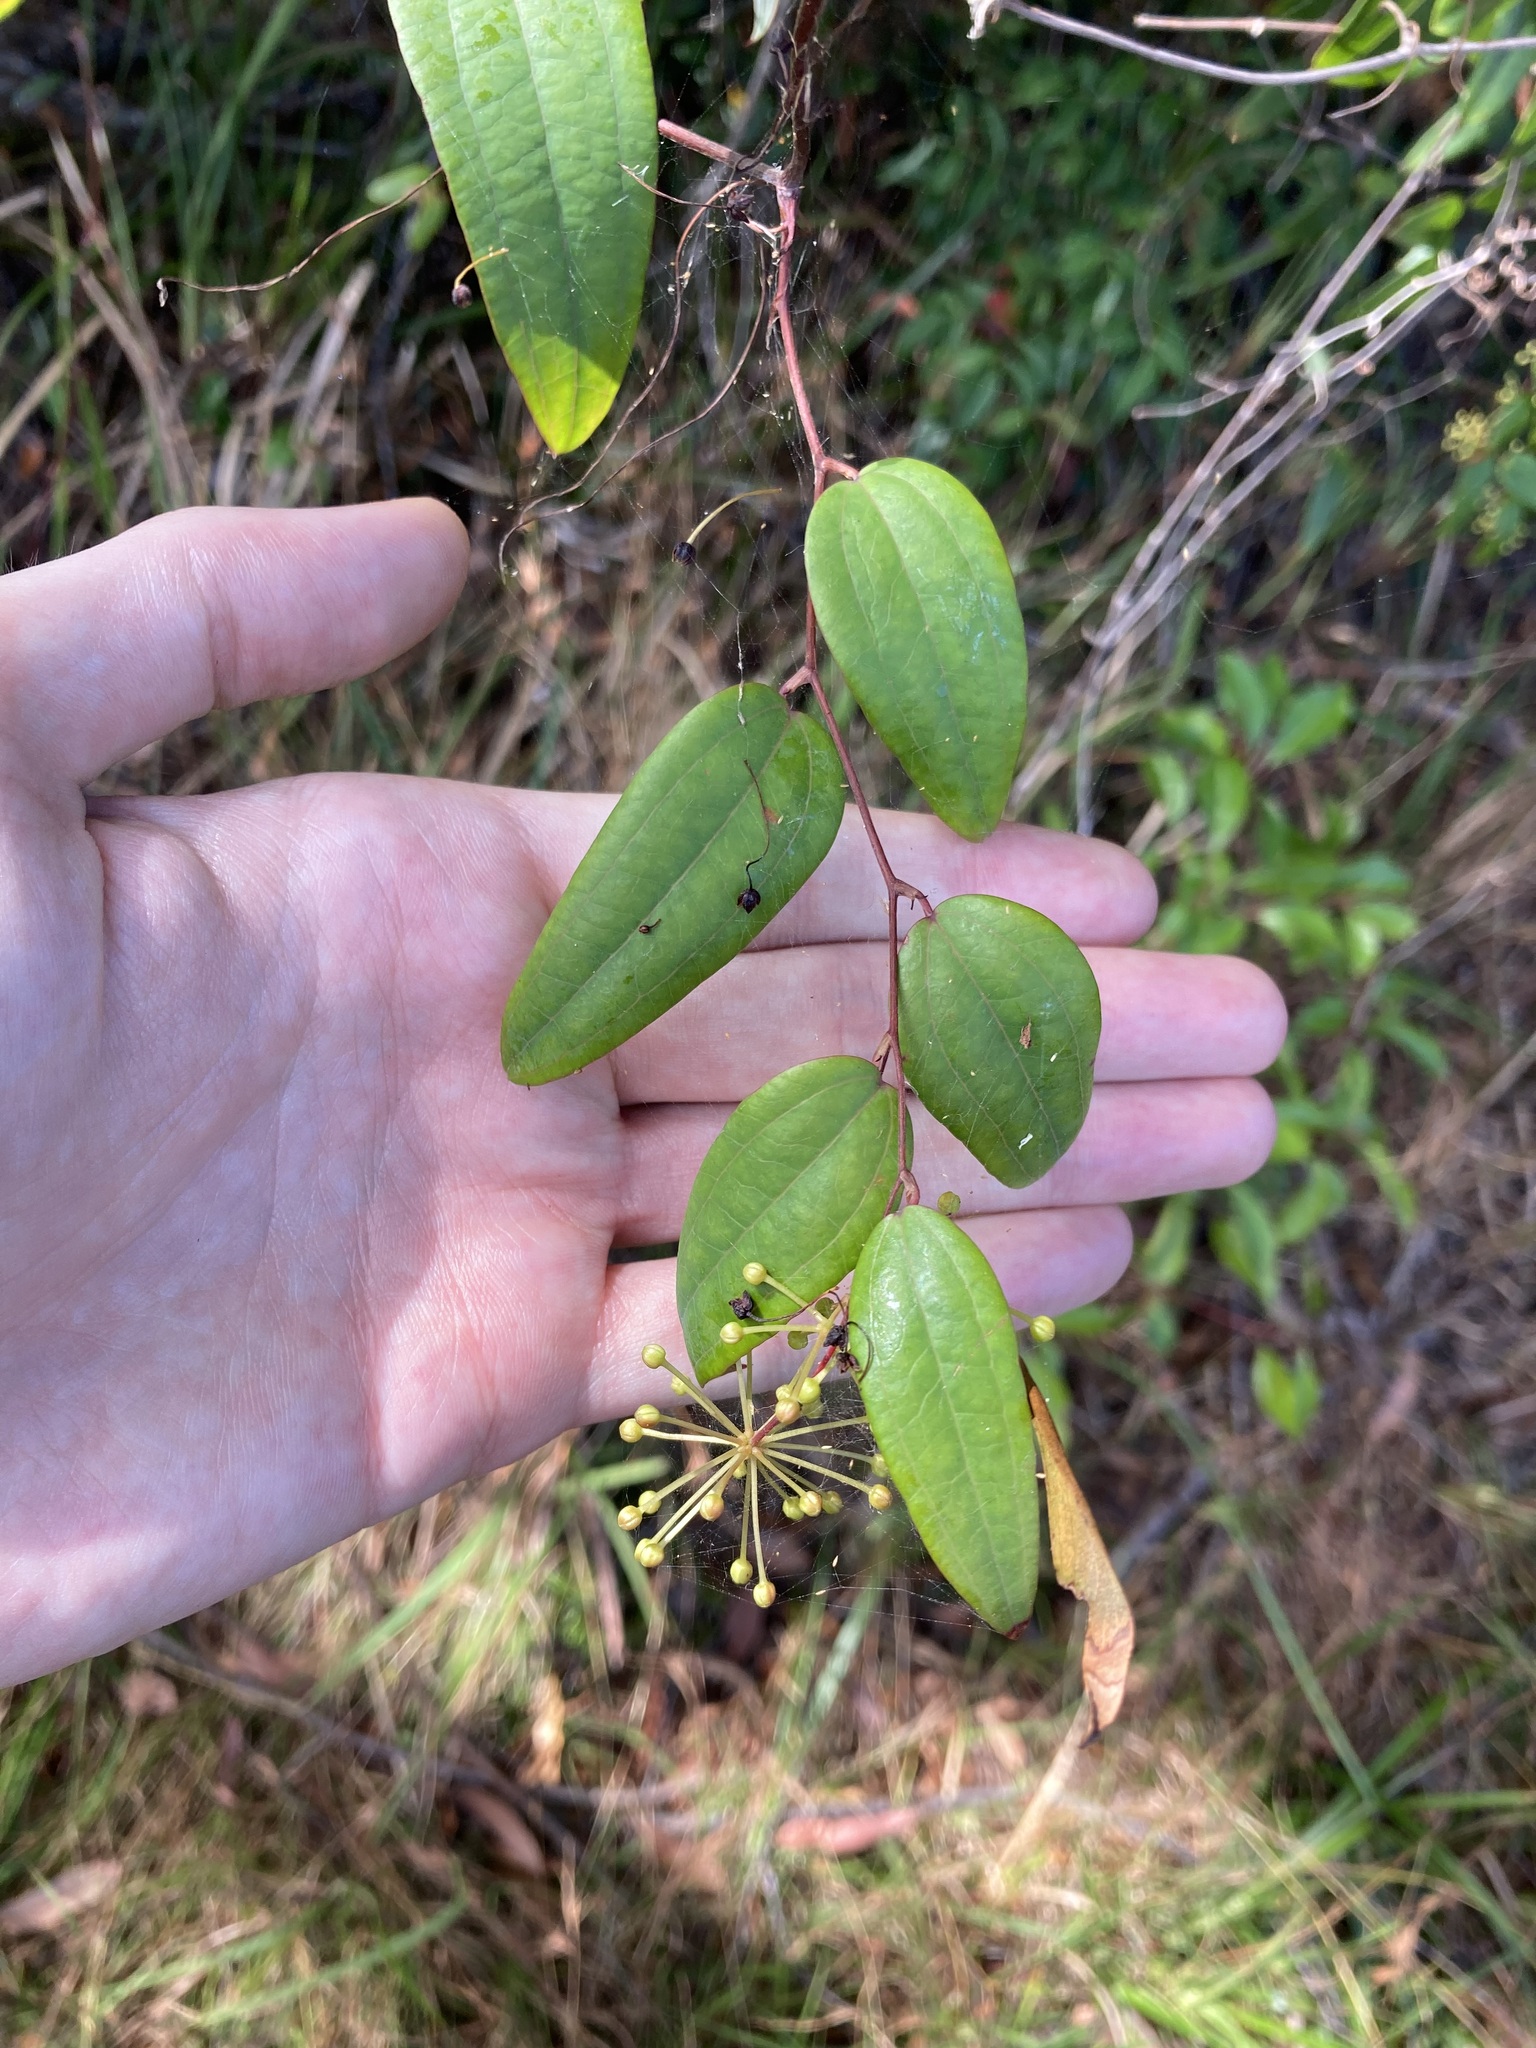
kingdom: Plantae
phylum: Tracheophyta
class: Liliopsida
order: Liliales
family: Smilacaceae
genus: Smilax
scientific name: Smilax glyciphylla
